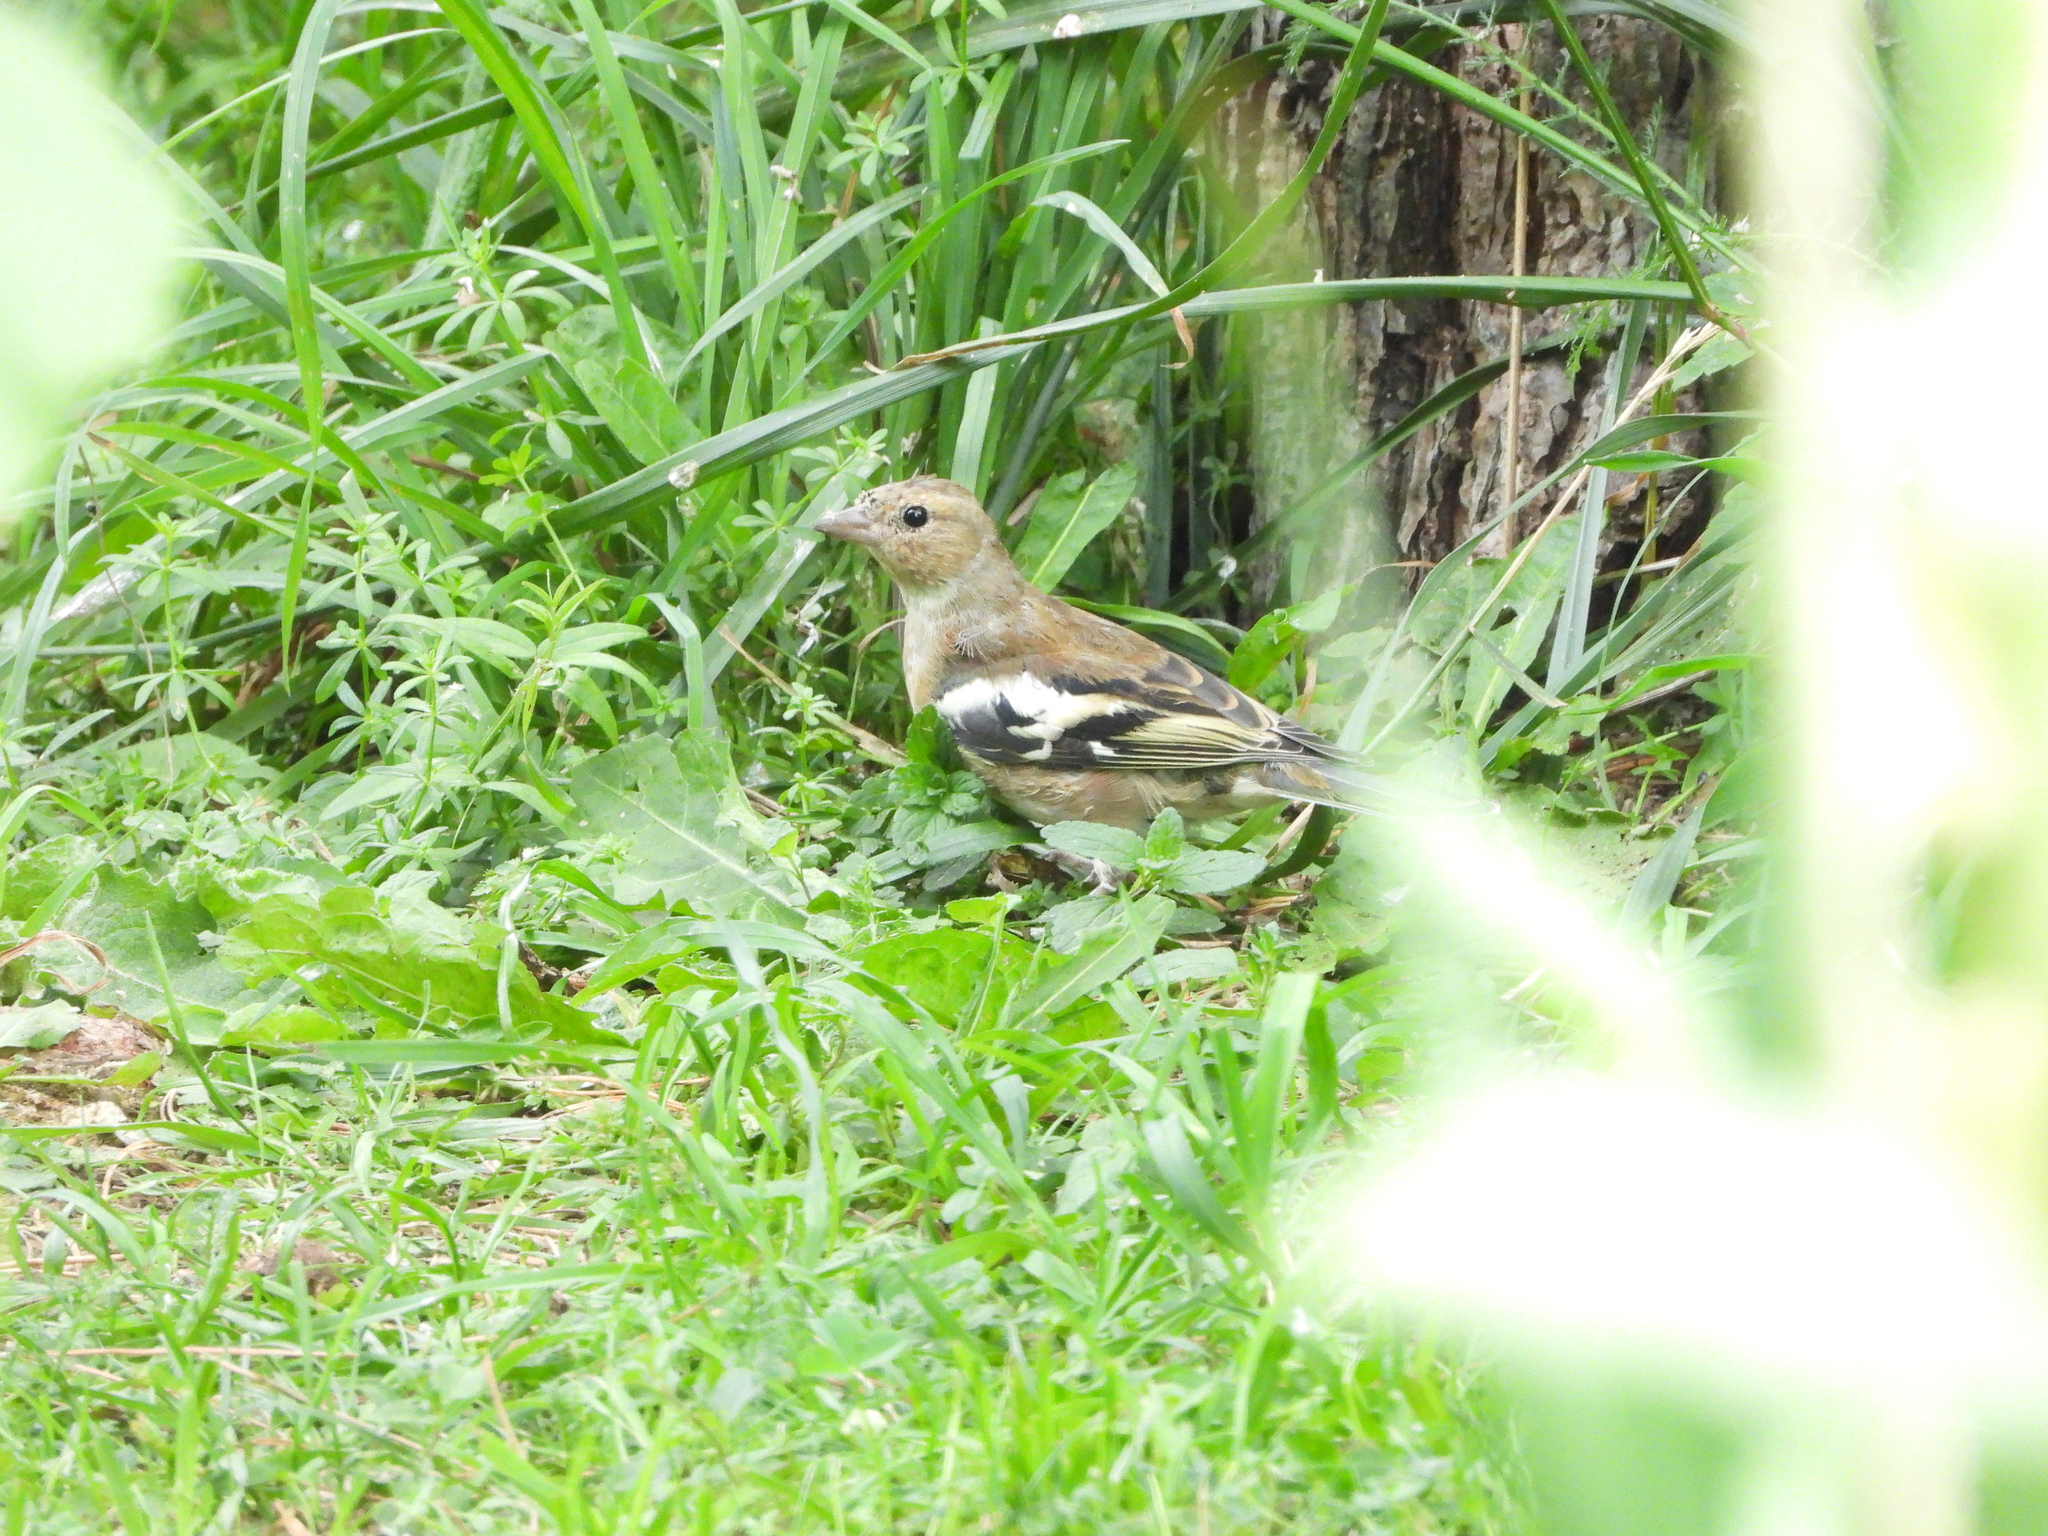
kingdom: Animalia
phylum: Chordata
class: Aves
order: Passeriformes
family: Fringillidae
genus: Fringilla
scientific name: Fringilla coelebs
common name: Common chaffinch
